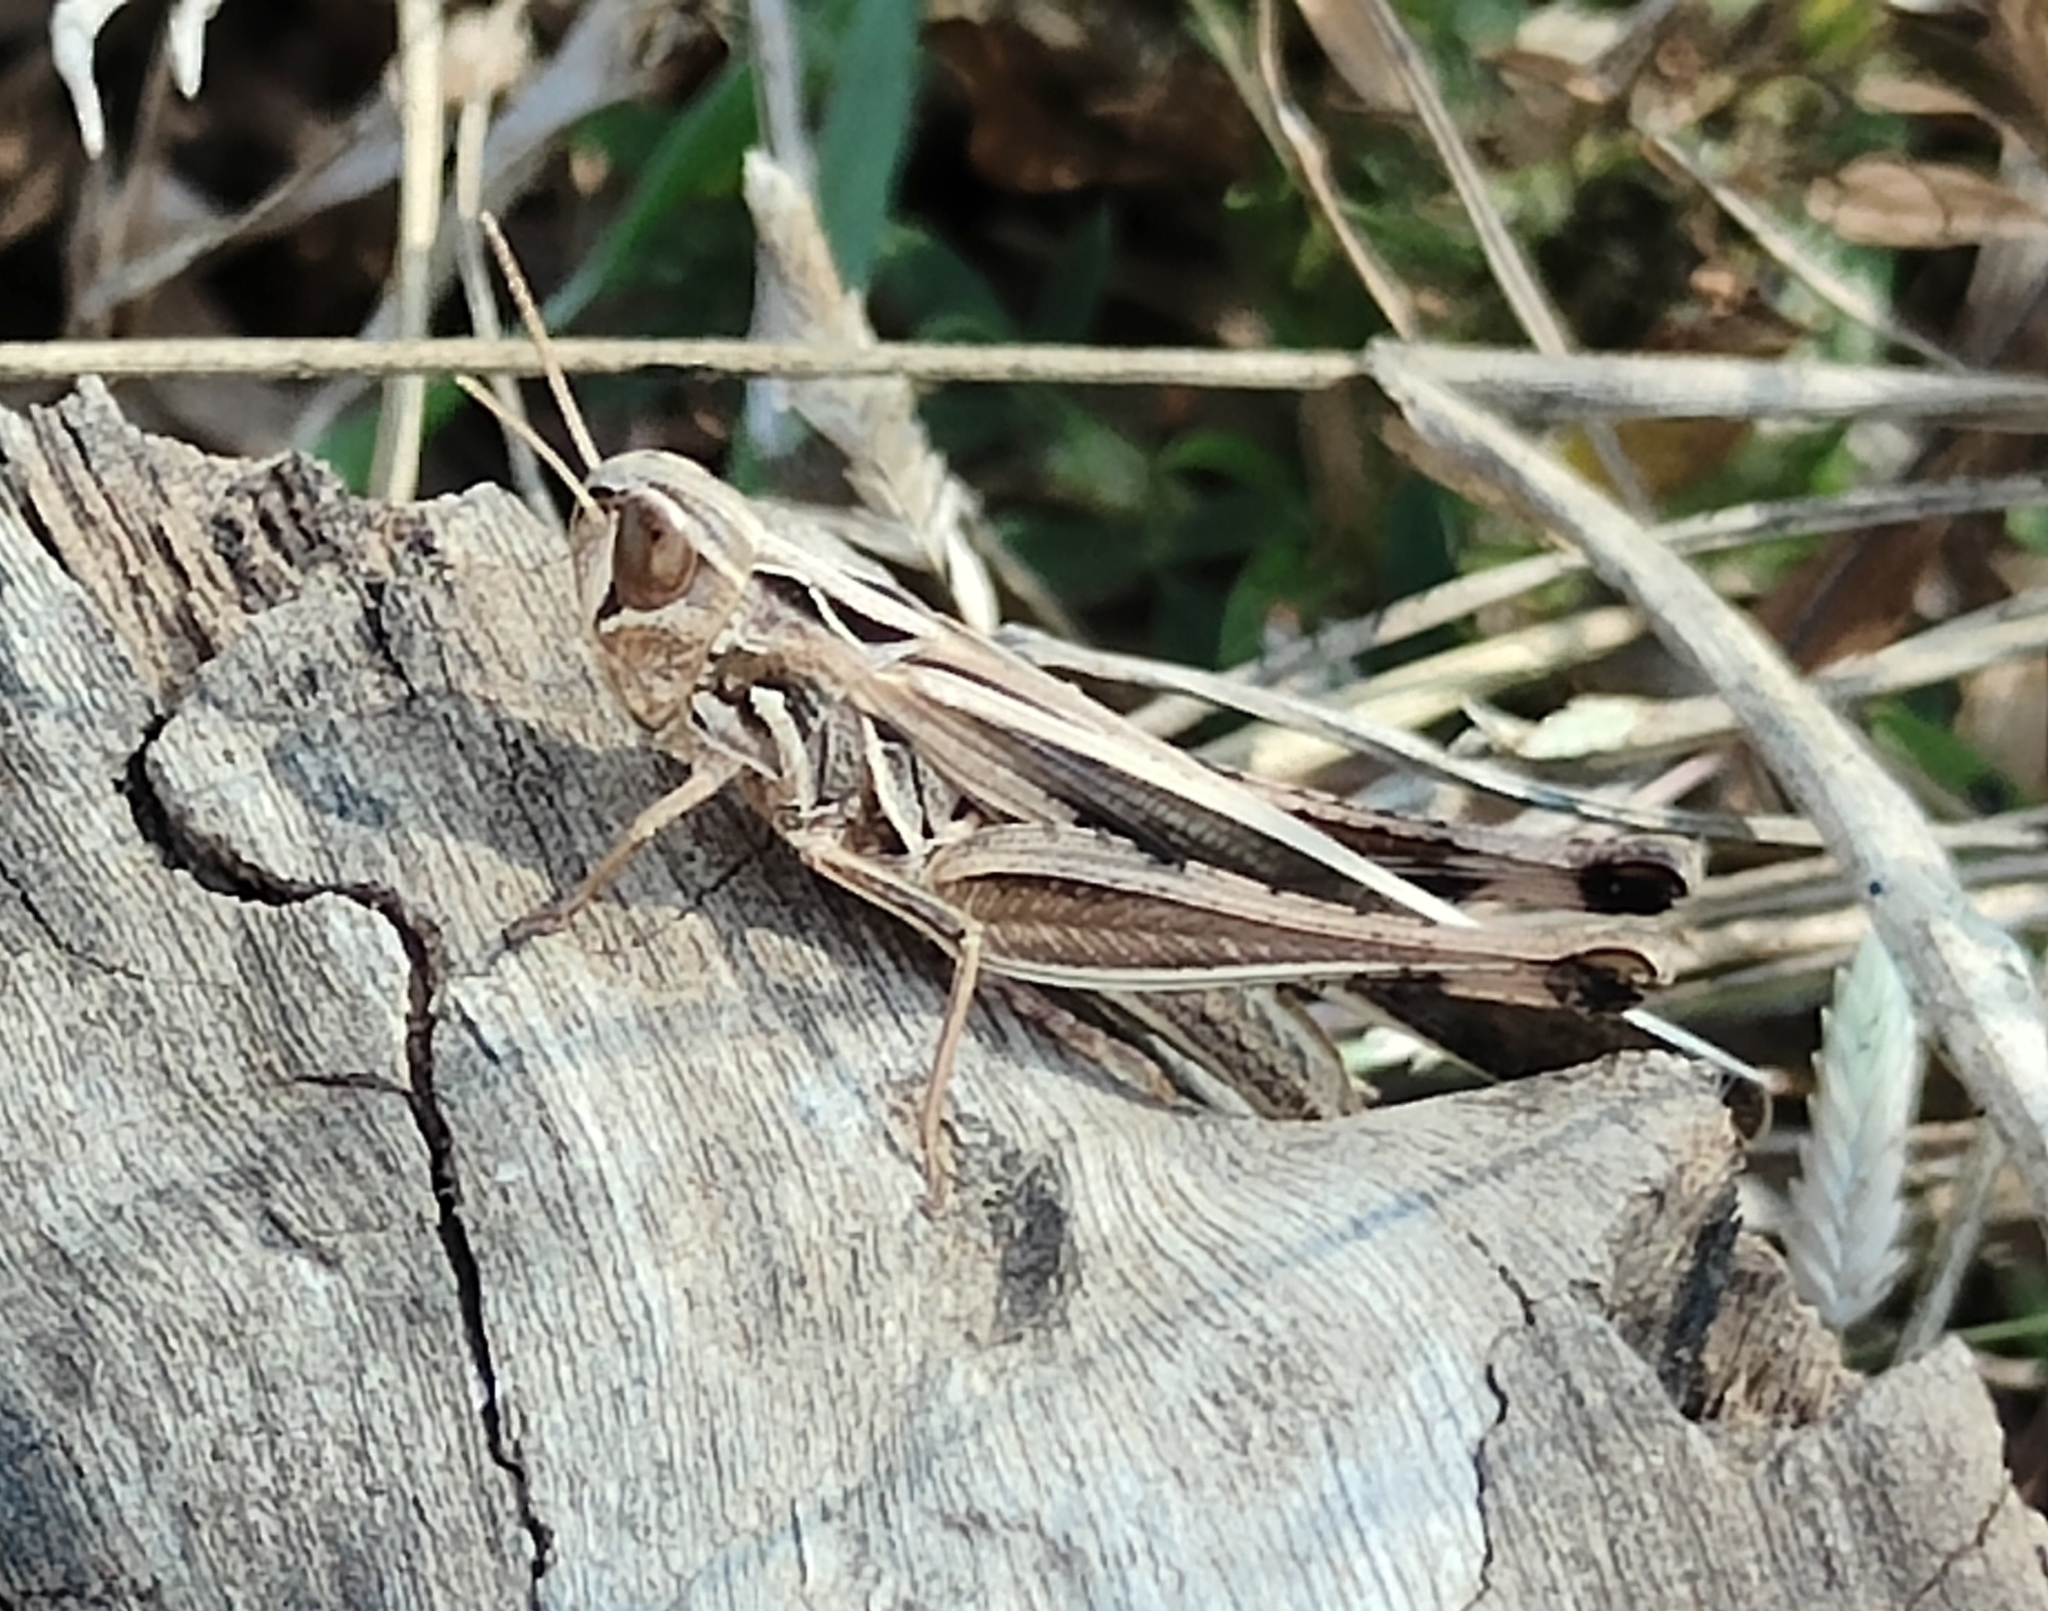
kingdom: Animalia
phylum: Arthropoda
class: Insecta
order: Orthoptera
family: Acrididae
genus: Caledia
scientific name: Caledia captiva
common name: Caledia
